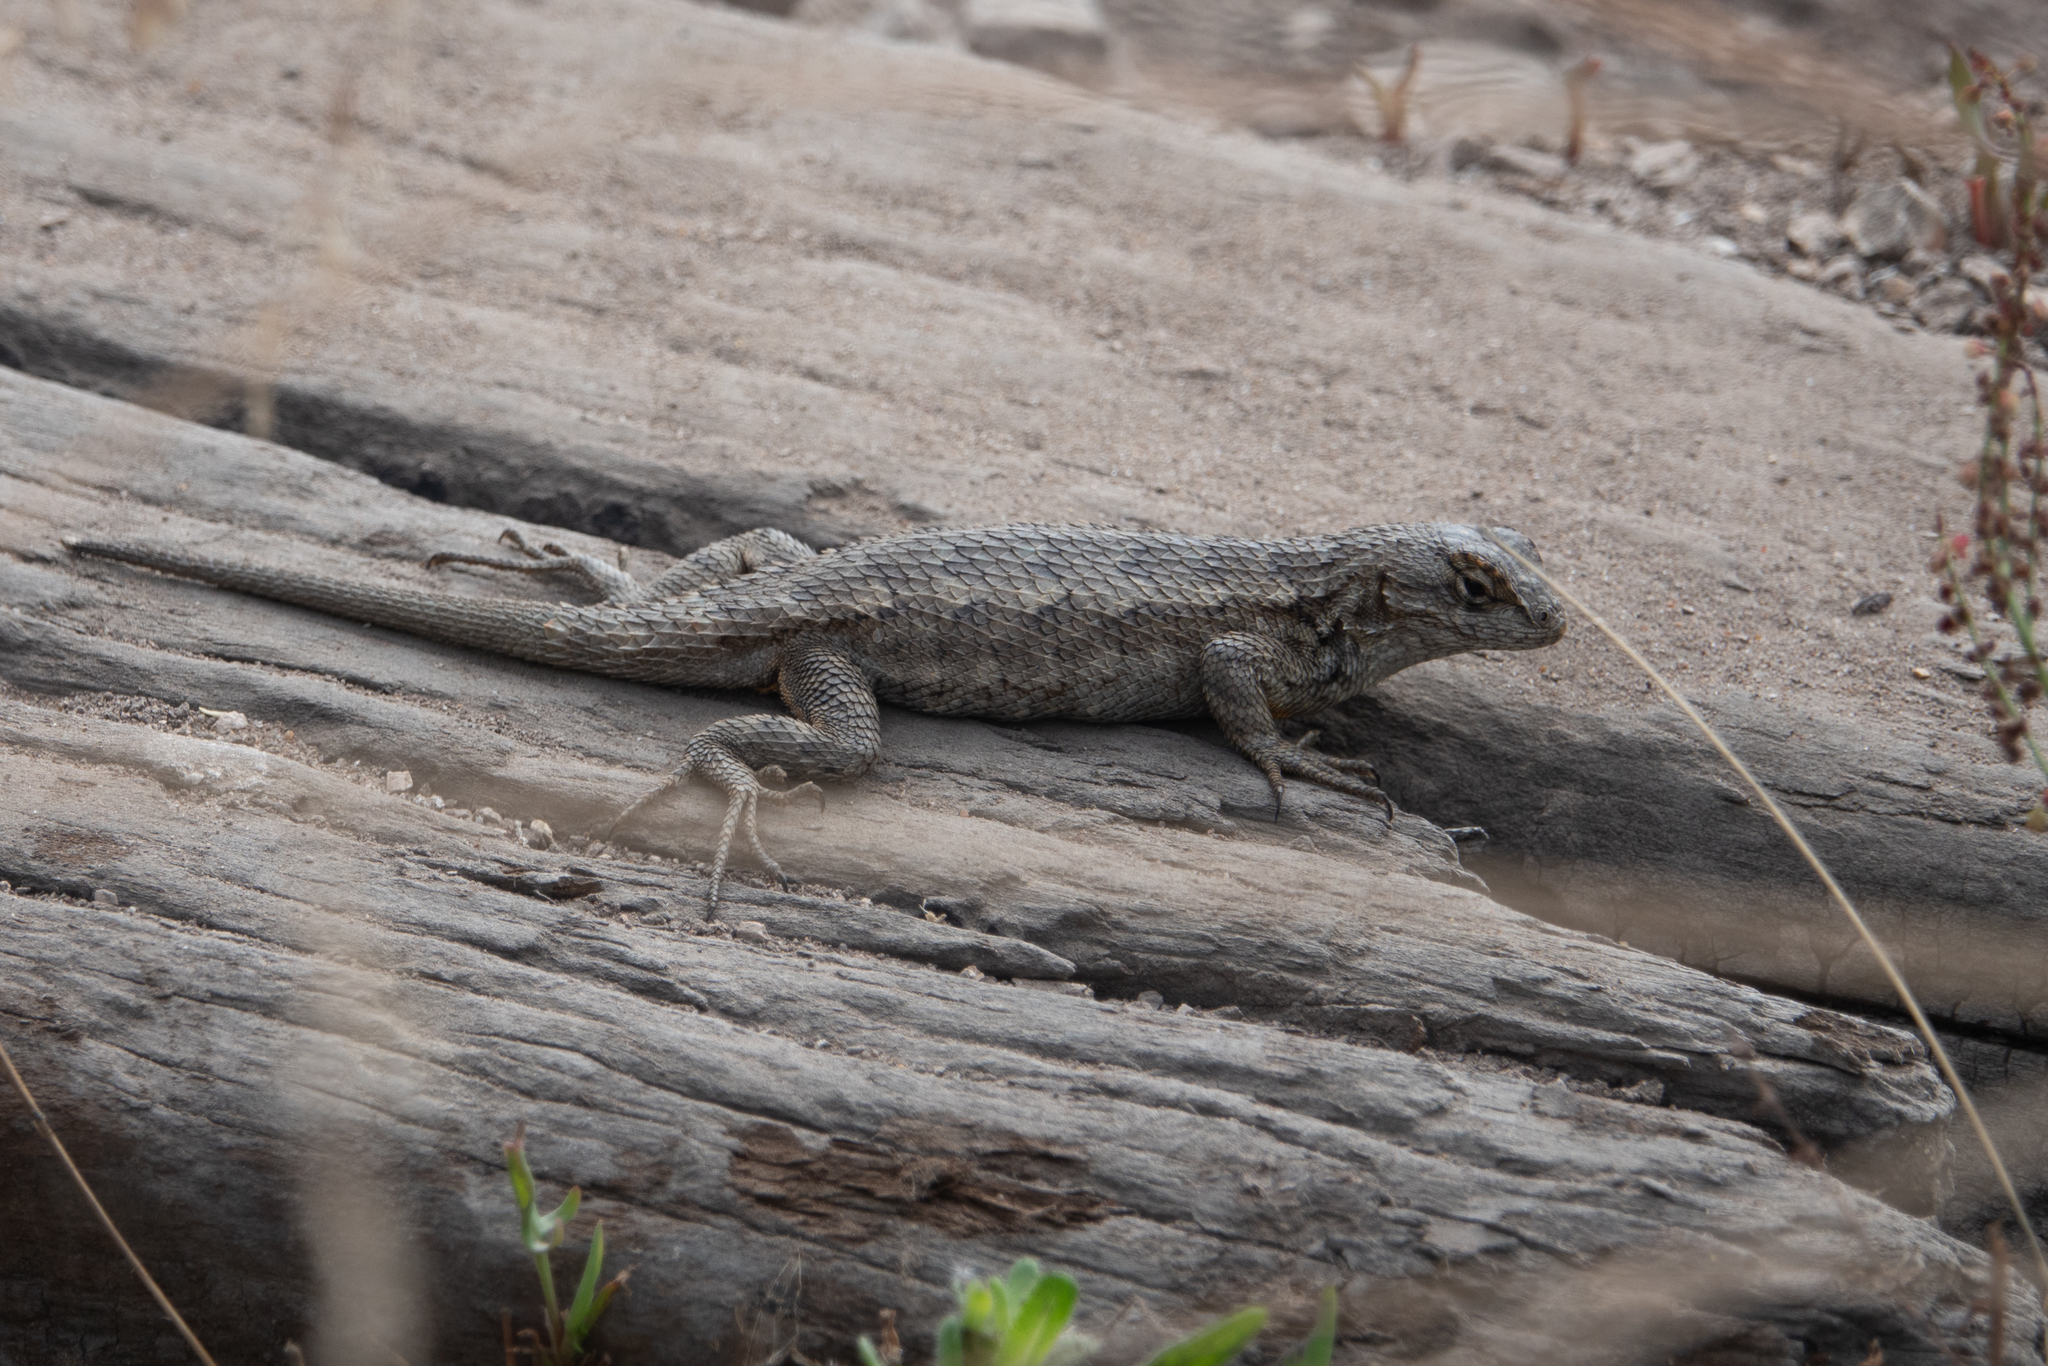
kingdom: Animalia
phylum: Chordata
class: Squamata
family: Phrynosomatidae
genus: Sceloporus
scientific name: Sceloporus occidentalis
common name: Western fence lizard
